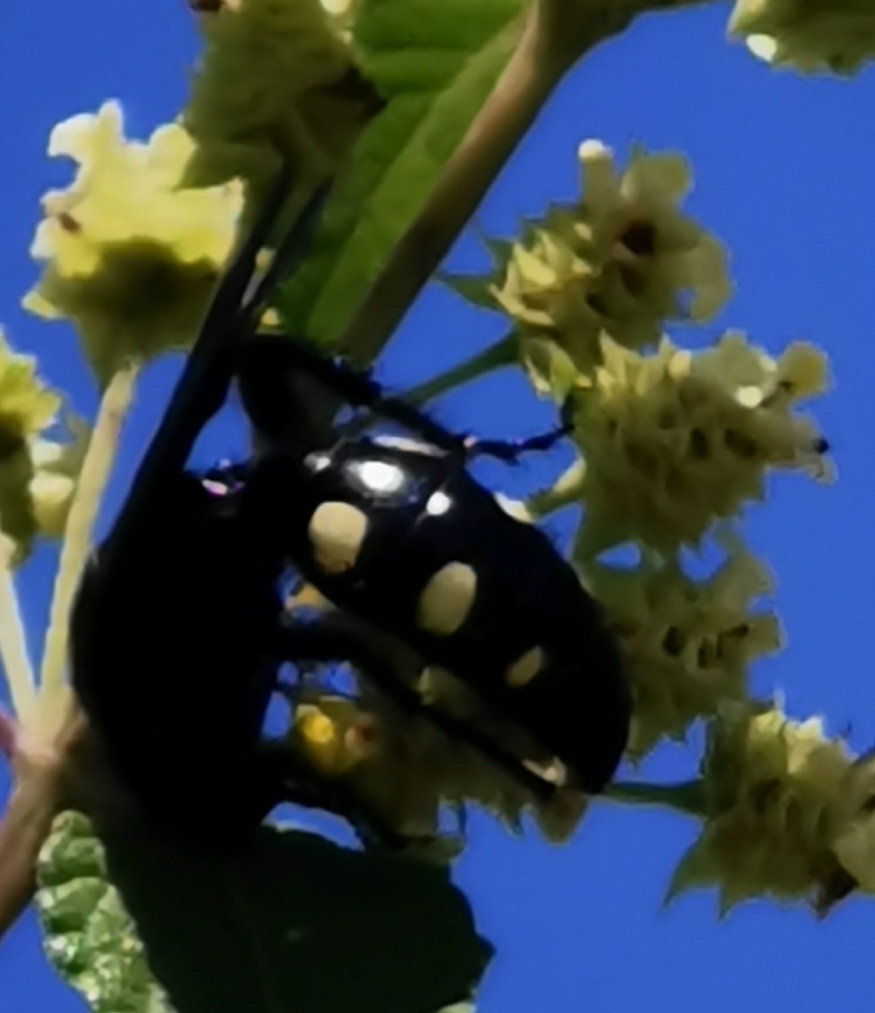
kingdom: Animalia
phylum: Arthropoda
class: Insecta
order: Hymenoptera
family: Scoliidae
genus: Scolia
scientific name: Scolia guttata
